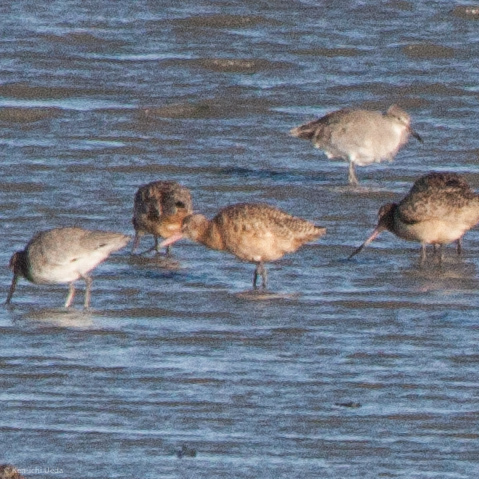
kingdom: Animalia
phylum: Chordata
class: Aves
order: Charadriiformes
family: Scolopacidae
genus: Limosa
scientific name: Limosa fedoa
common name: Marbled godwit
